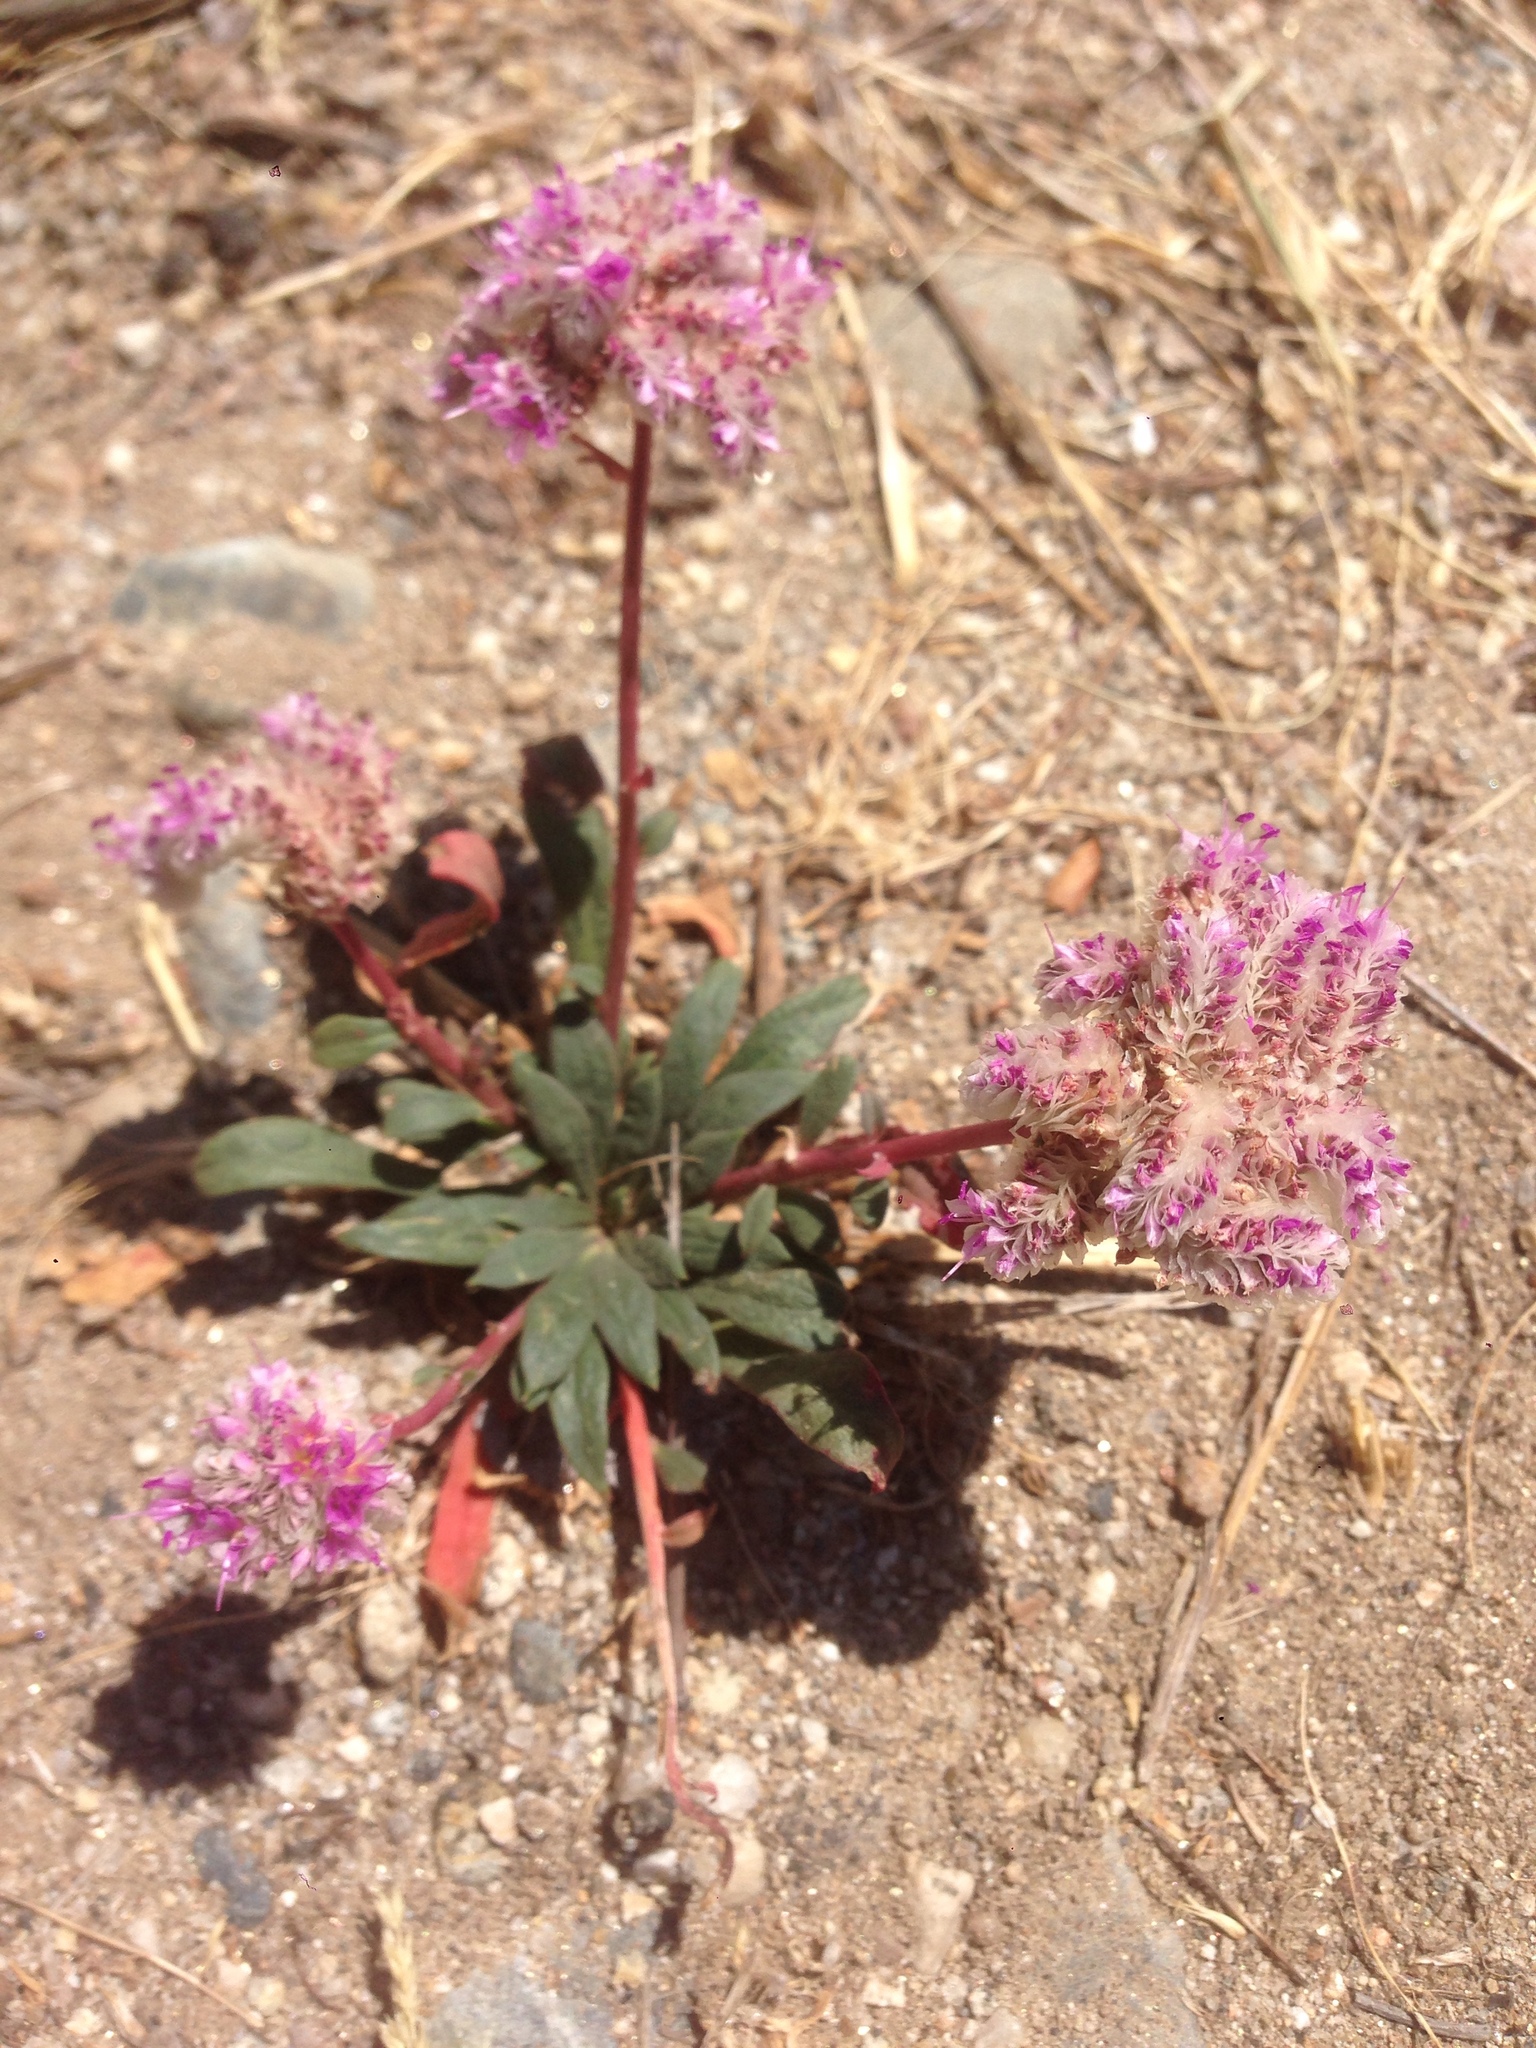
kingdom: Plantae
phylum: Tracheophyta
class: Magnoliopsida
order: Caryophyllales
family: Montiaceae
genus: Calyptridium
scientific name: Calyptridium monospermum
